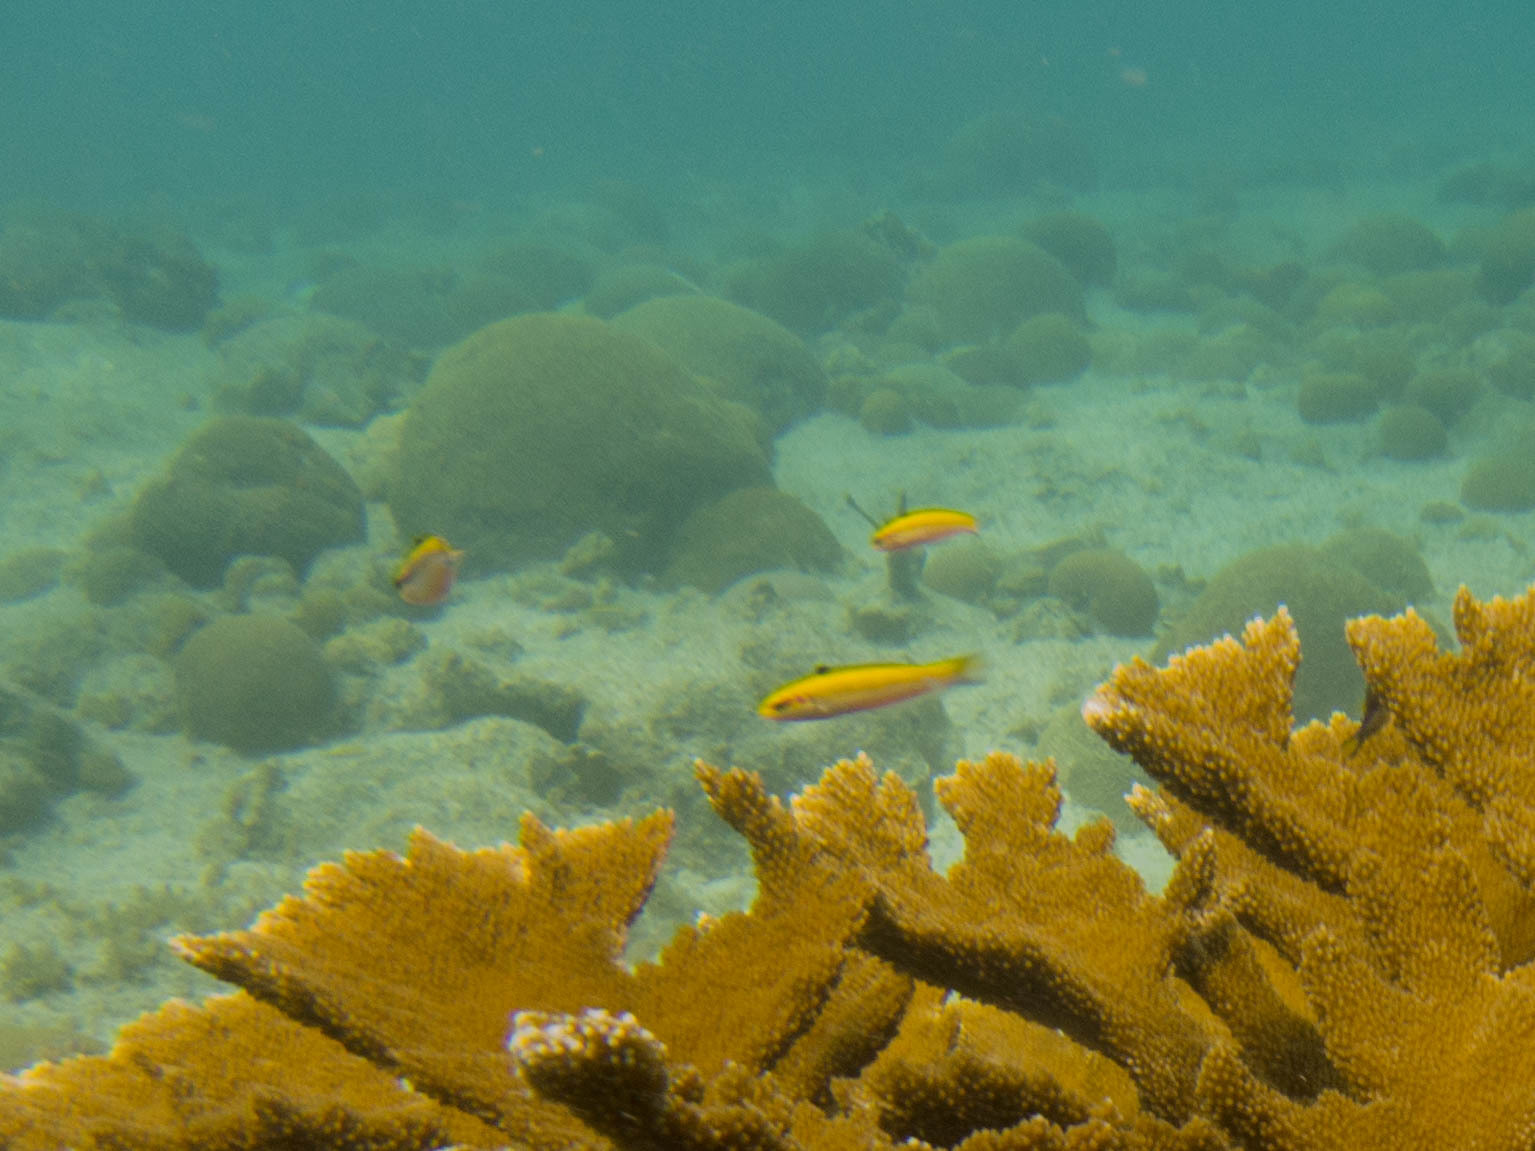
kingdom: Animalia
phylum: Chordata
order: Perciformes
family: Labridae
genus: Thalassoma
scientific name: Thalassoma bifasciatum
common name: Bluehead wrasse
